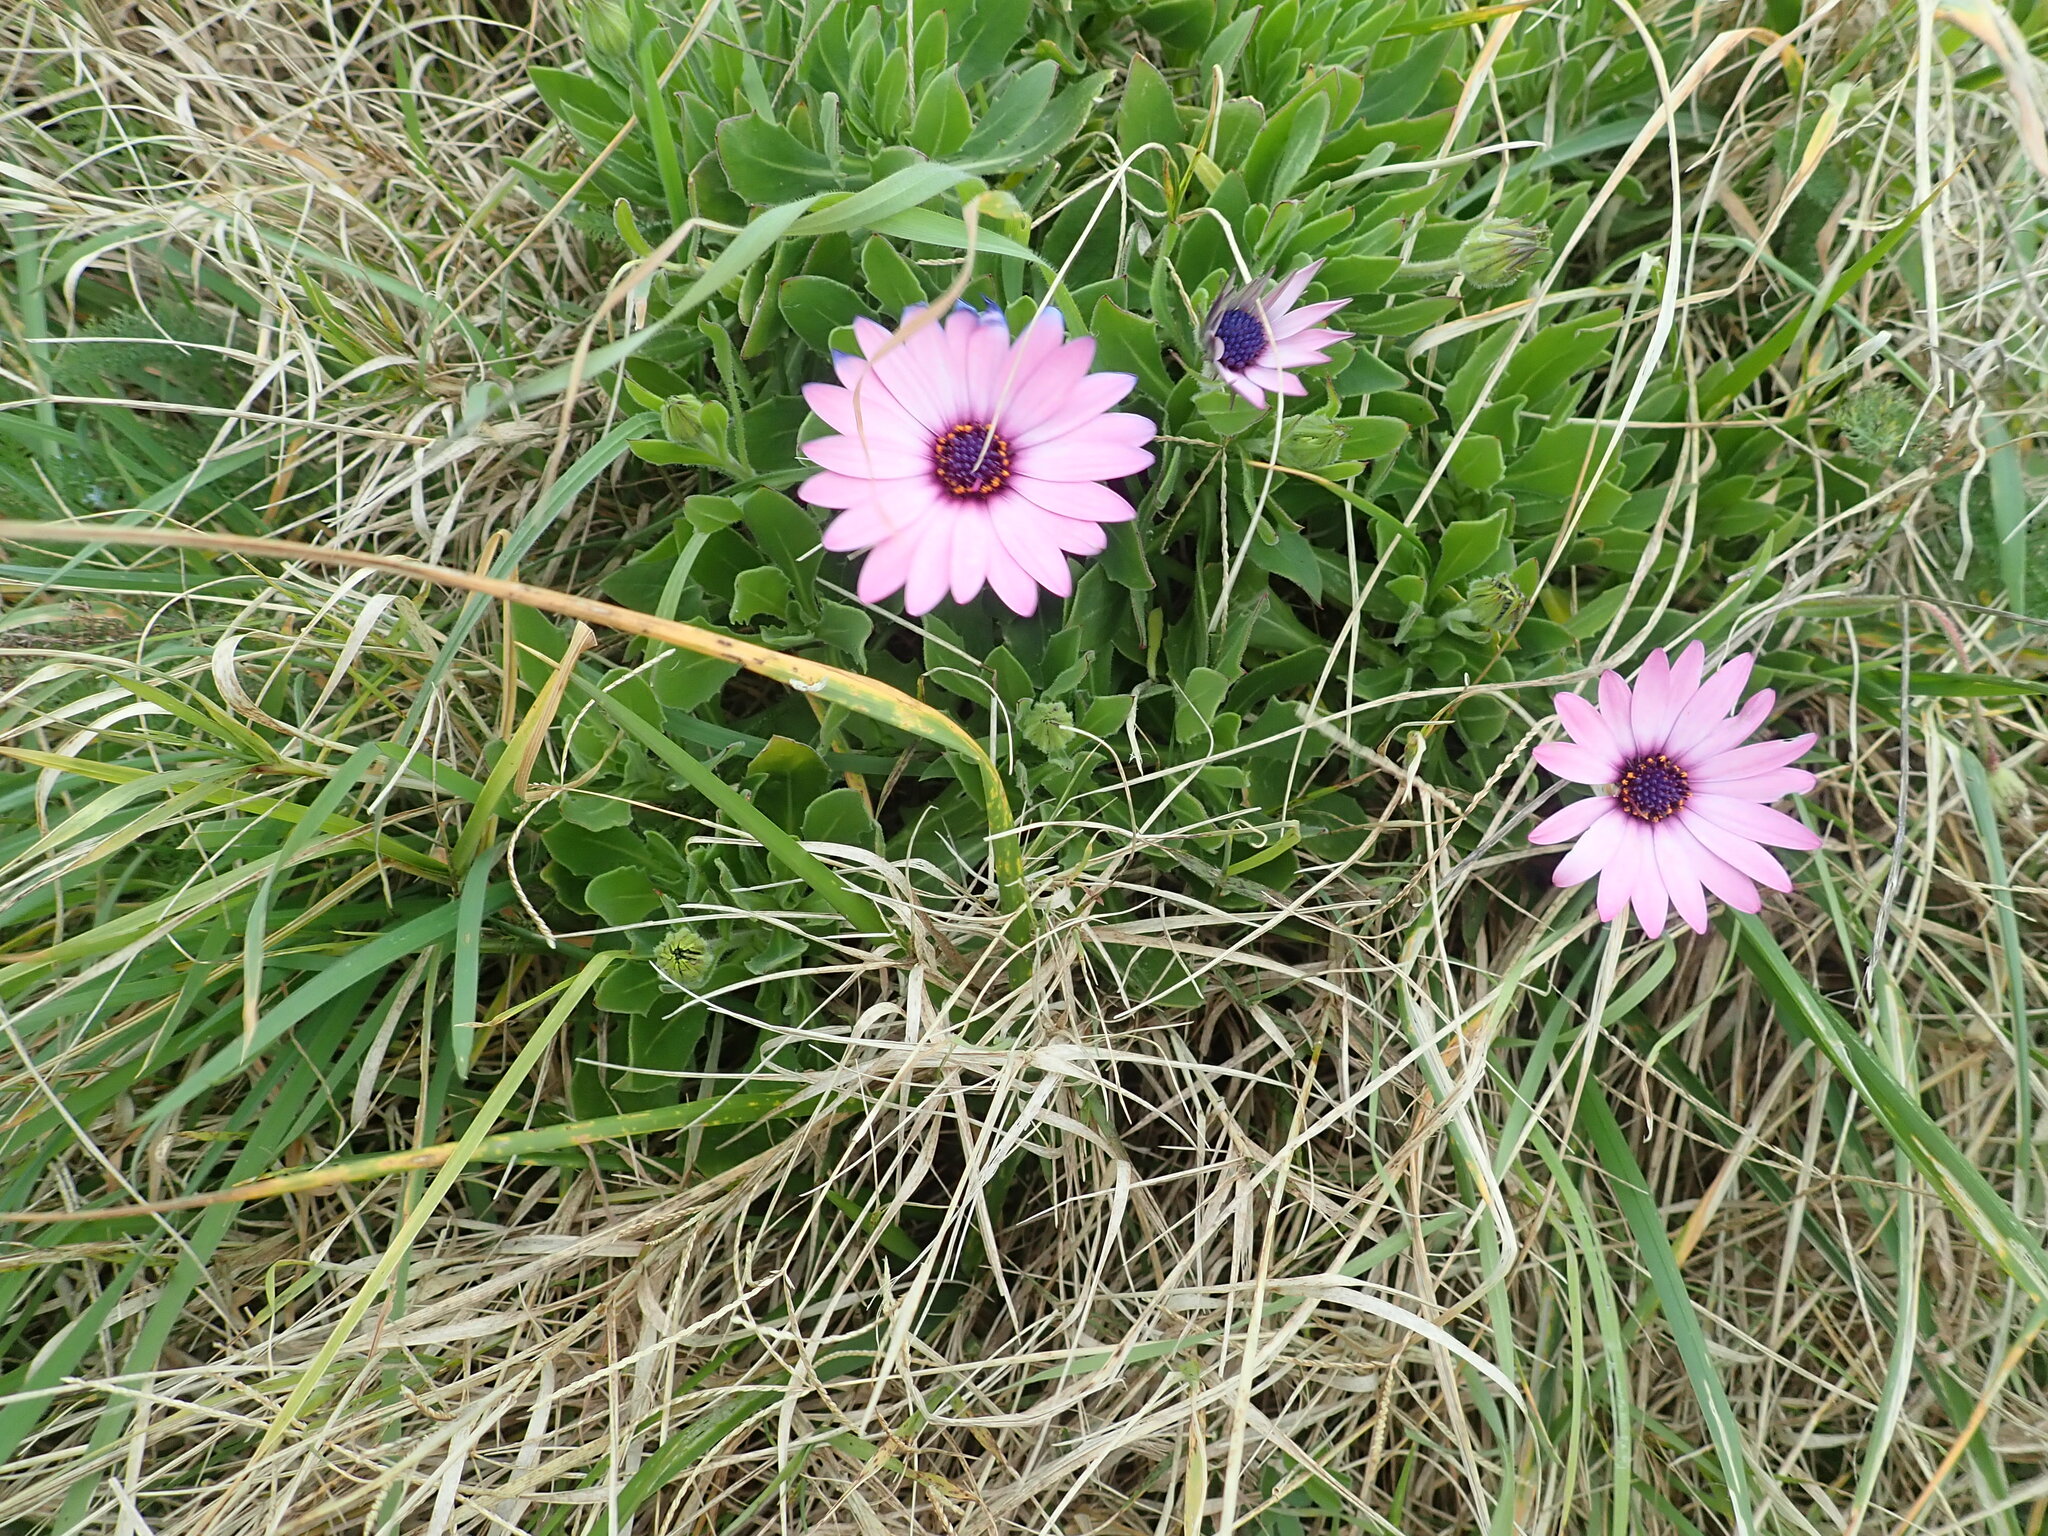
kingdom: Plantae
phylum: Tracheophyta
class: Magnoliopsida
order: Asterales
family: Asteraceae
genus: Dimorphotheca
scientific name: Dimorphotheca fruticosa
